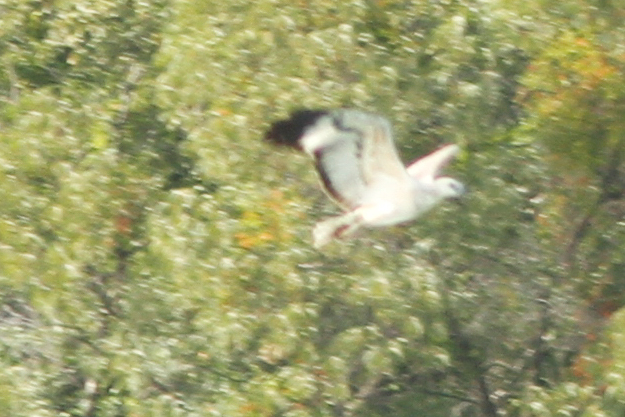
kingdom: Animalia
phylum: Chordata
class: Aves
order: Accipitriformes
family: Accipitridae
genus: Haliaeetus
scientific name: Haliaeetus leucogaster
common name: White-bellied sea eagle
